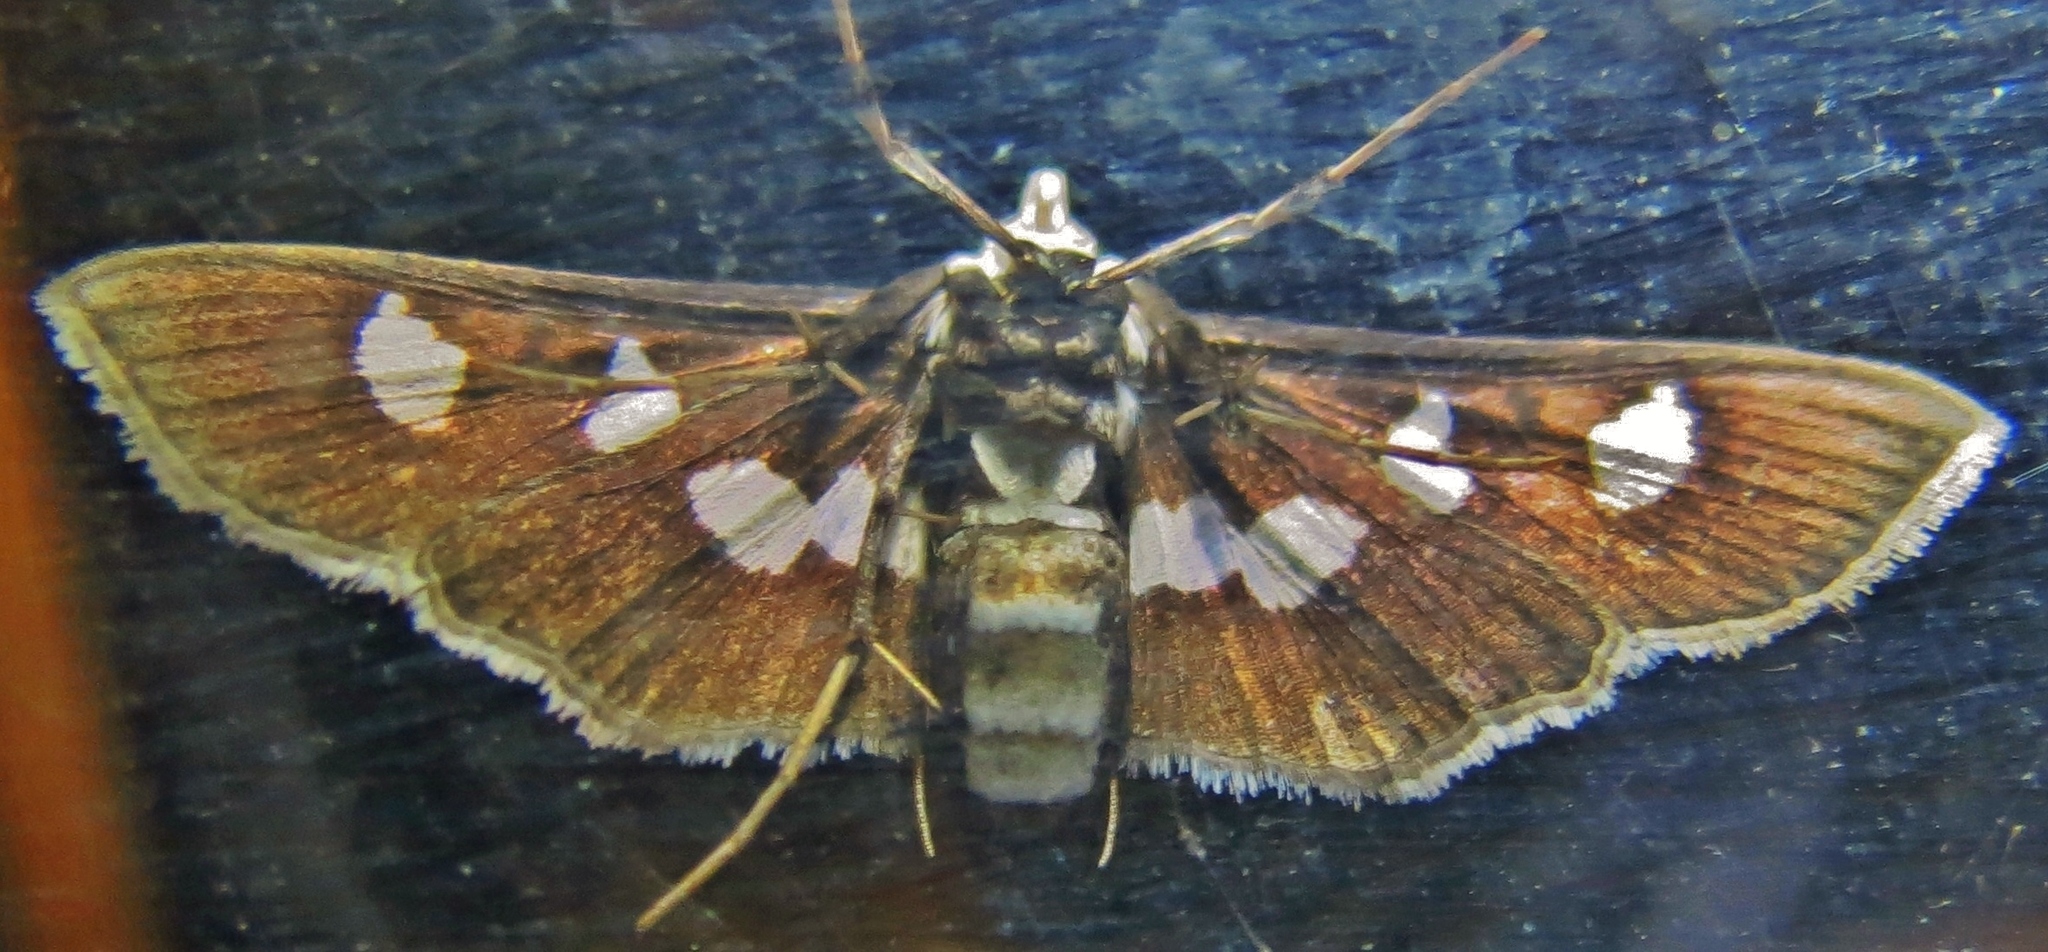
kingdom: Animalia
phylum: Arthropoda
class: Insecta
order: Lepidoptera
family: Crambidae
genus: Desmia
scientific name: Desmia funeralis
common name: Grape leaf folder moth
